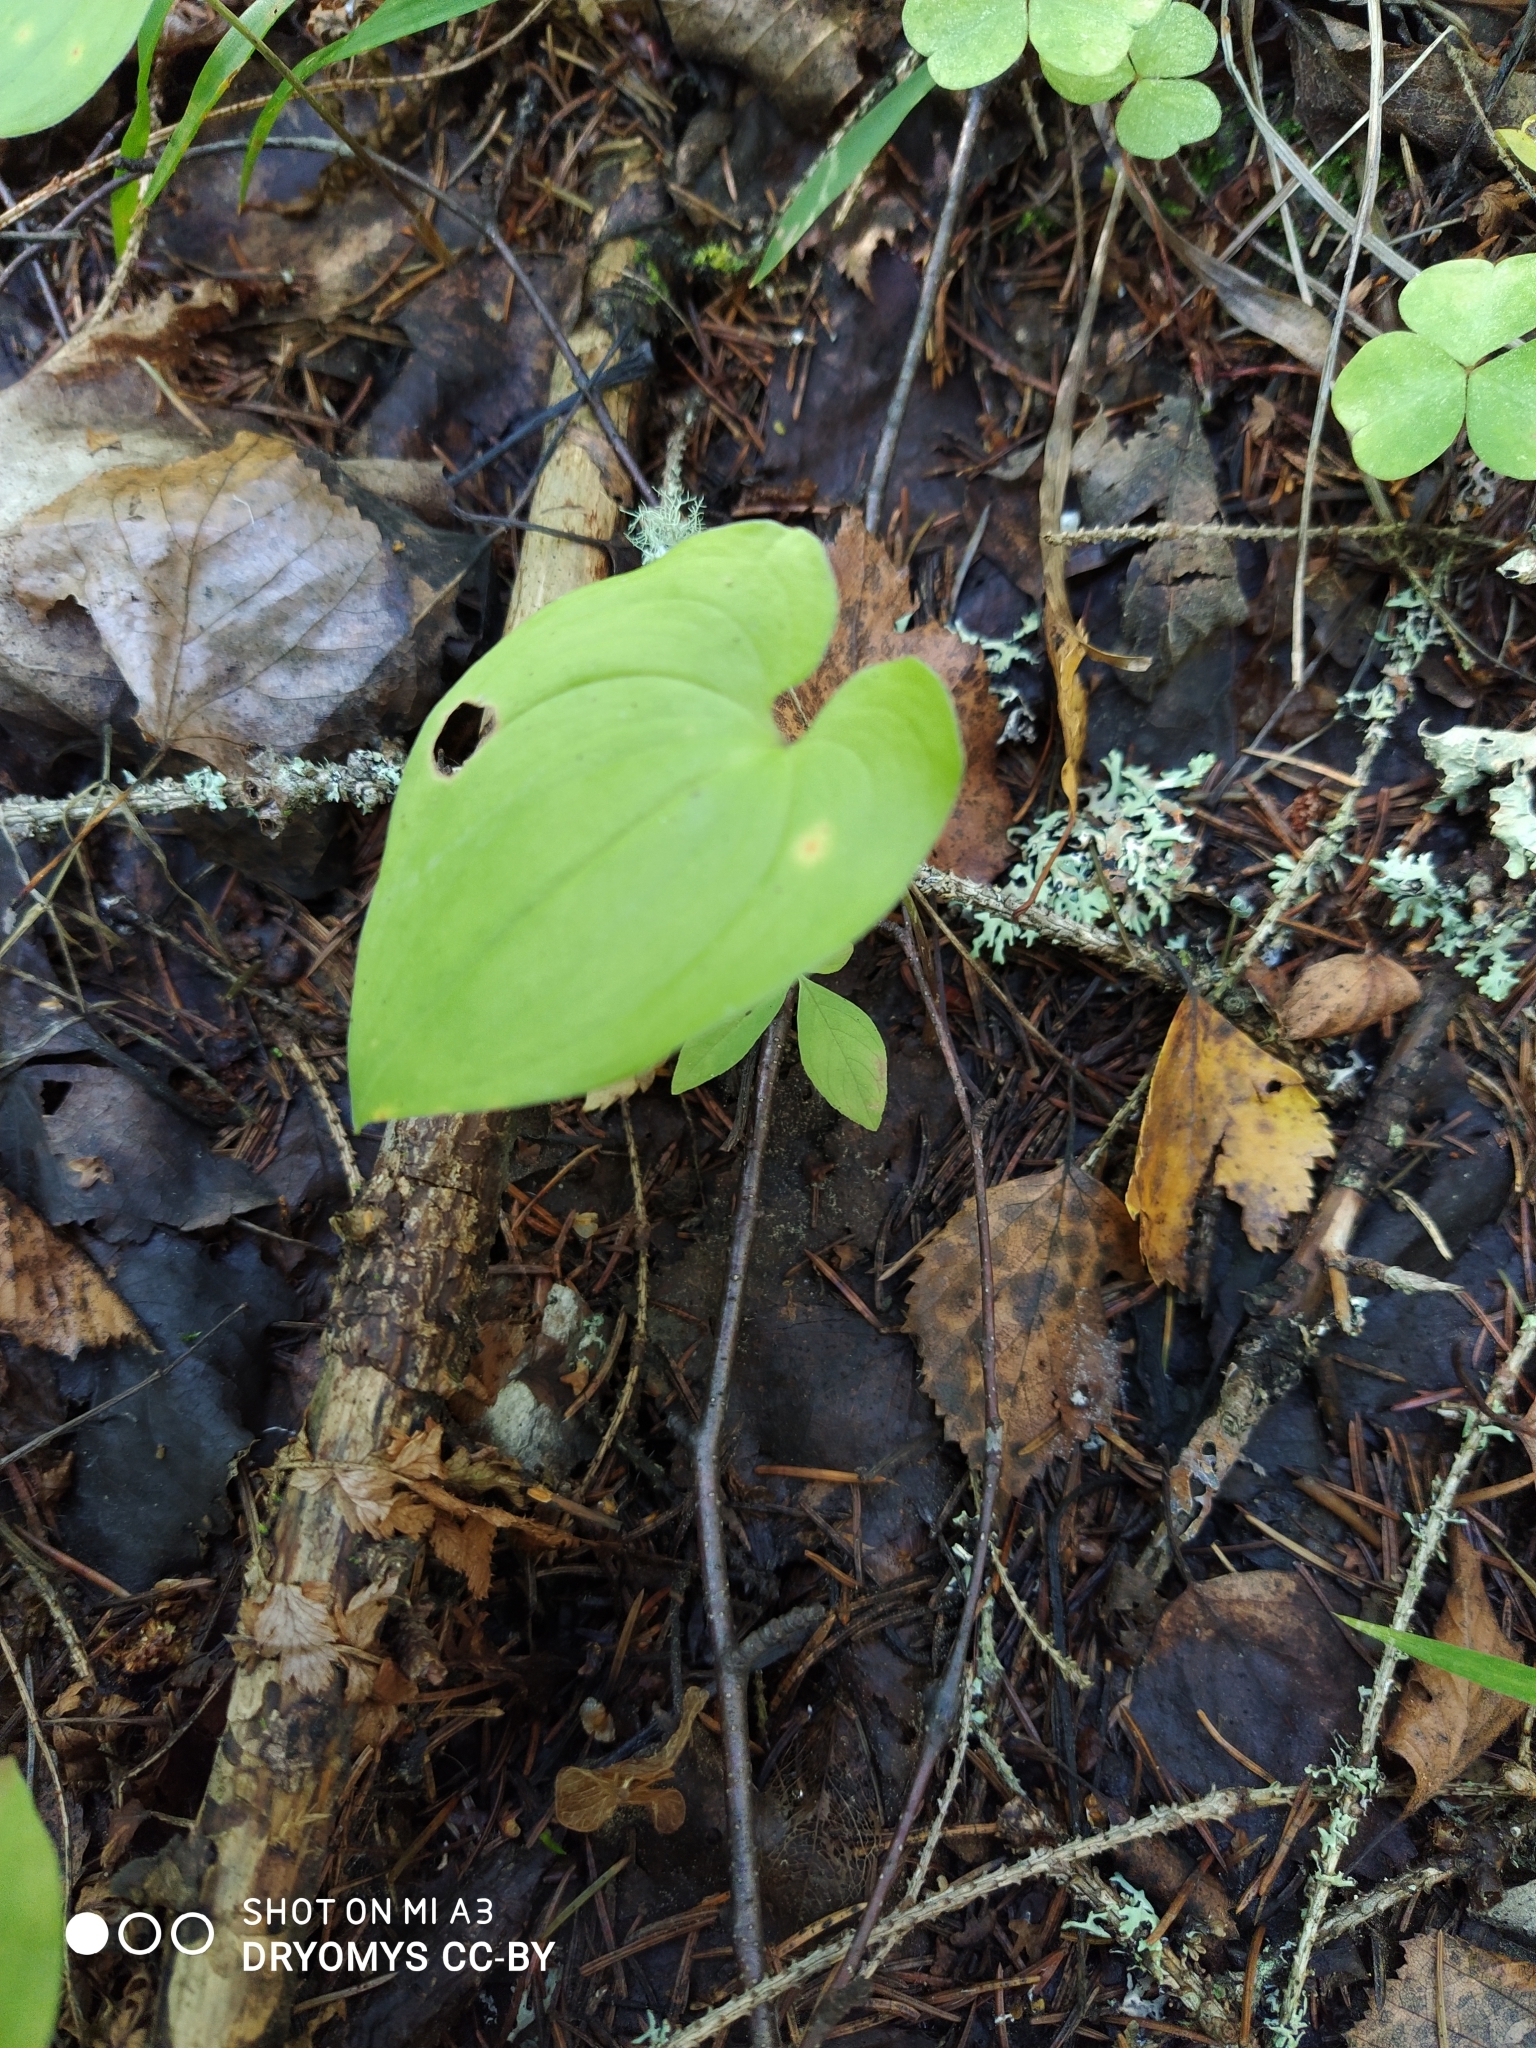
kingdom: Plantae
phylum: Tracheophyta
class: Liliopsida
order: Asparagales
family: Asparagaceae
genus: Maianthemum
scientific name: Maianthemum bifolium
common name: May lily
